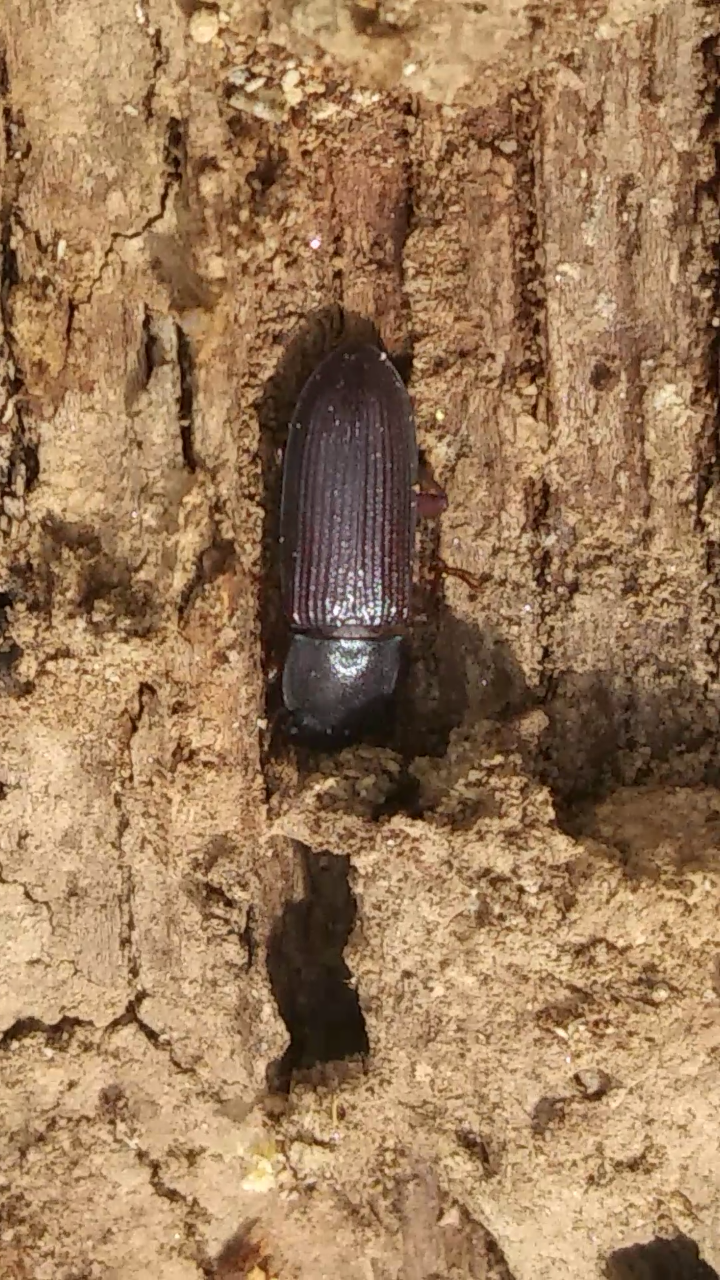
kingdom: Animalia
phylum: Arthropoda
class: Insecta
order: Coleoptera
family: Tenebrionidae
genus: Idiobates
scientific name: Idiobates castaneus
